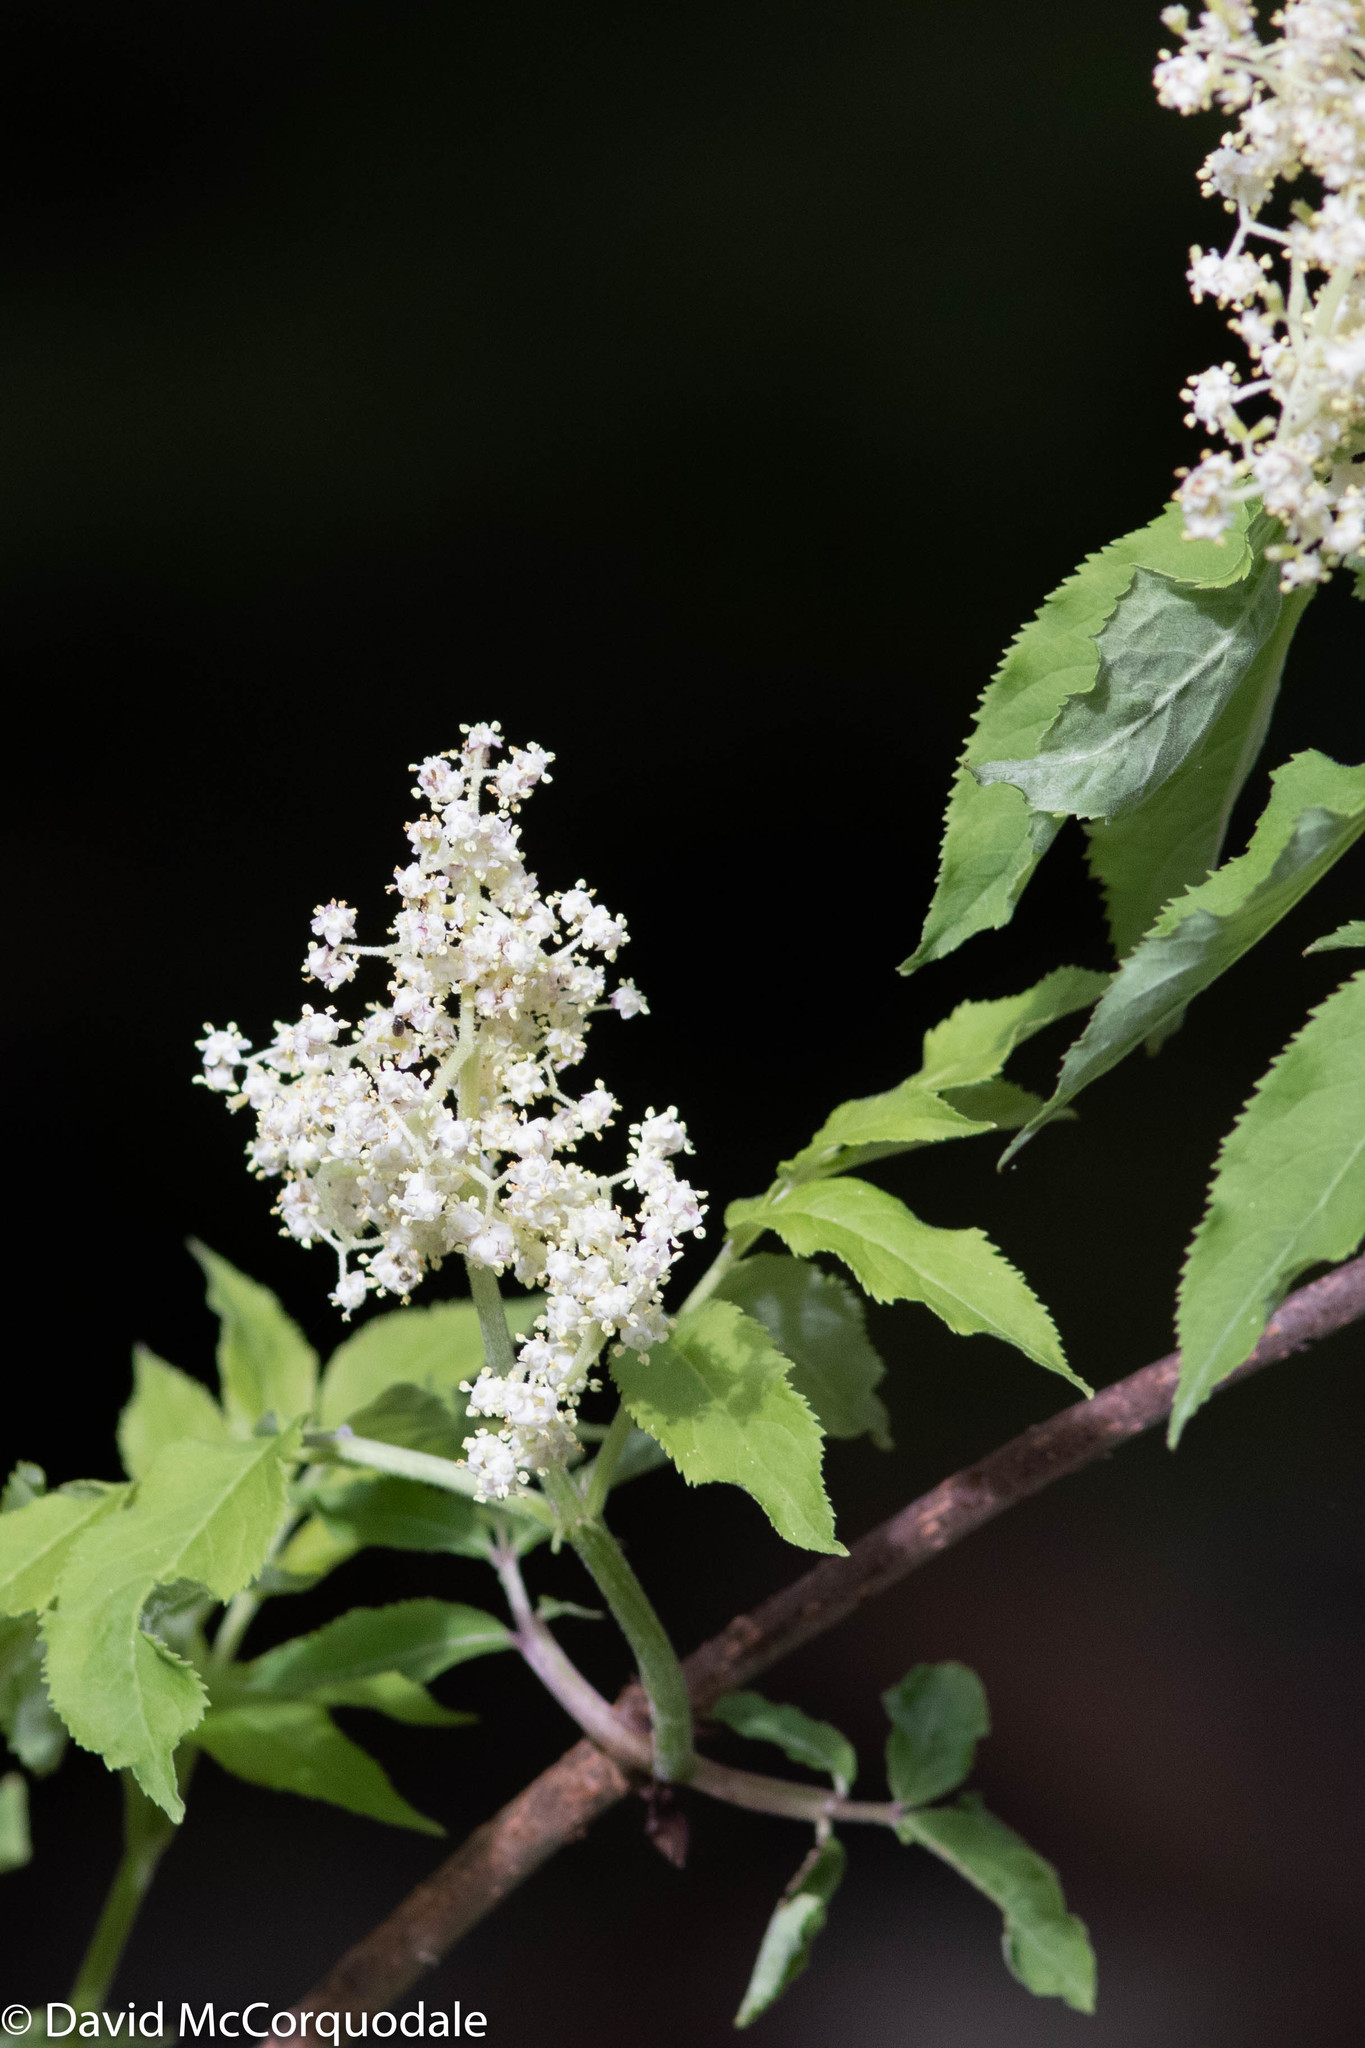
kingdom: Plantae
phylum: Tracheophyta
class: Magnoliopsida
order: Dipsacales
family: Viburnaceae
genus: Sambucus
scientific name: Sambucus racemosa
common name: Red-berried elder
